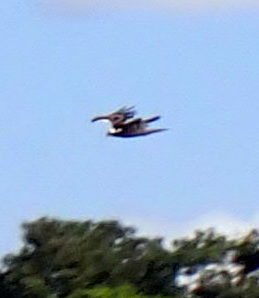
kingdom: Animalia
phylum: Chordata
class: Aves
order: Accipitriformes
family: Pandionidae
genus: Pandion
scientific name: Pandion haliaetus
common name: Osprey
